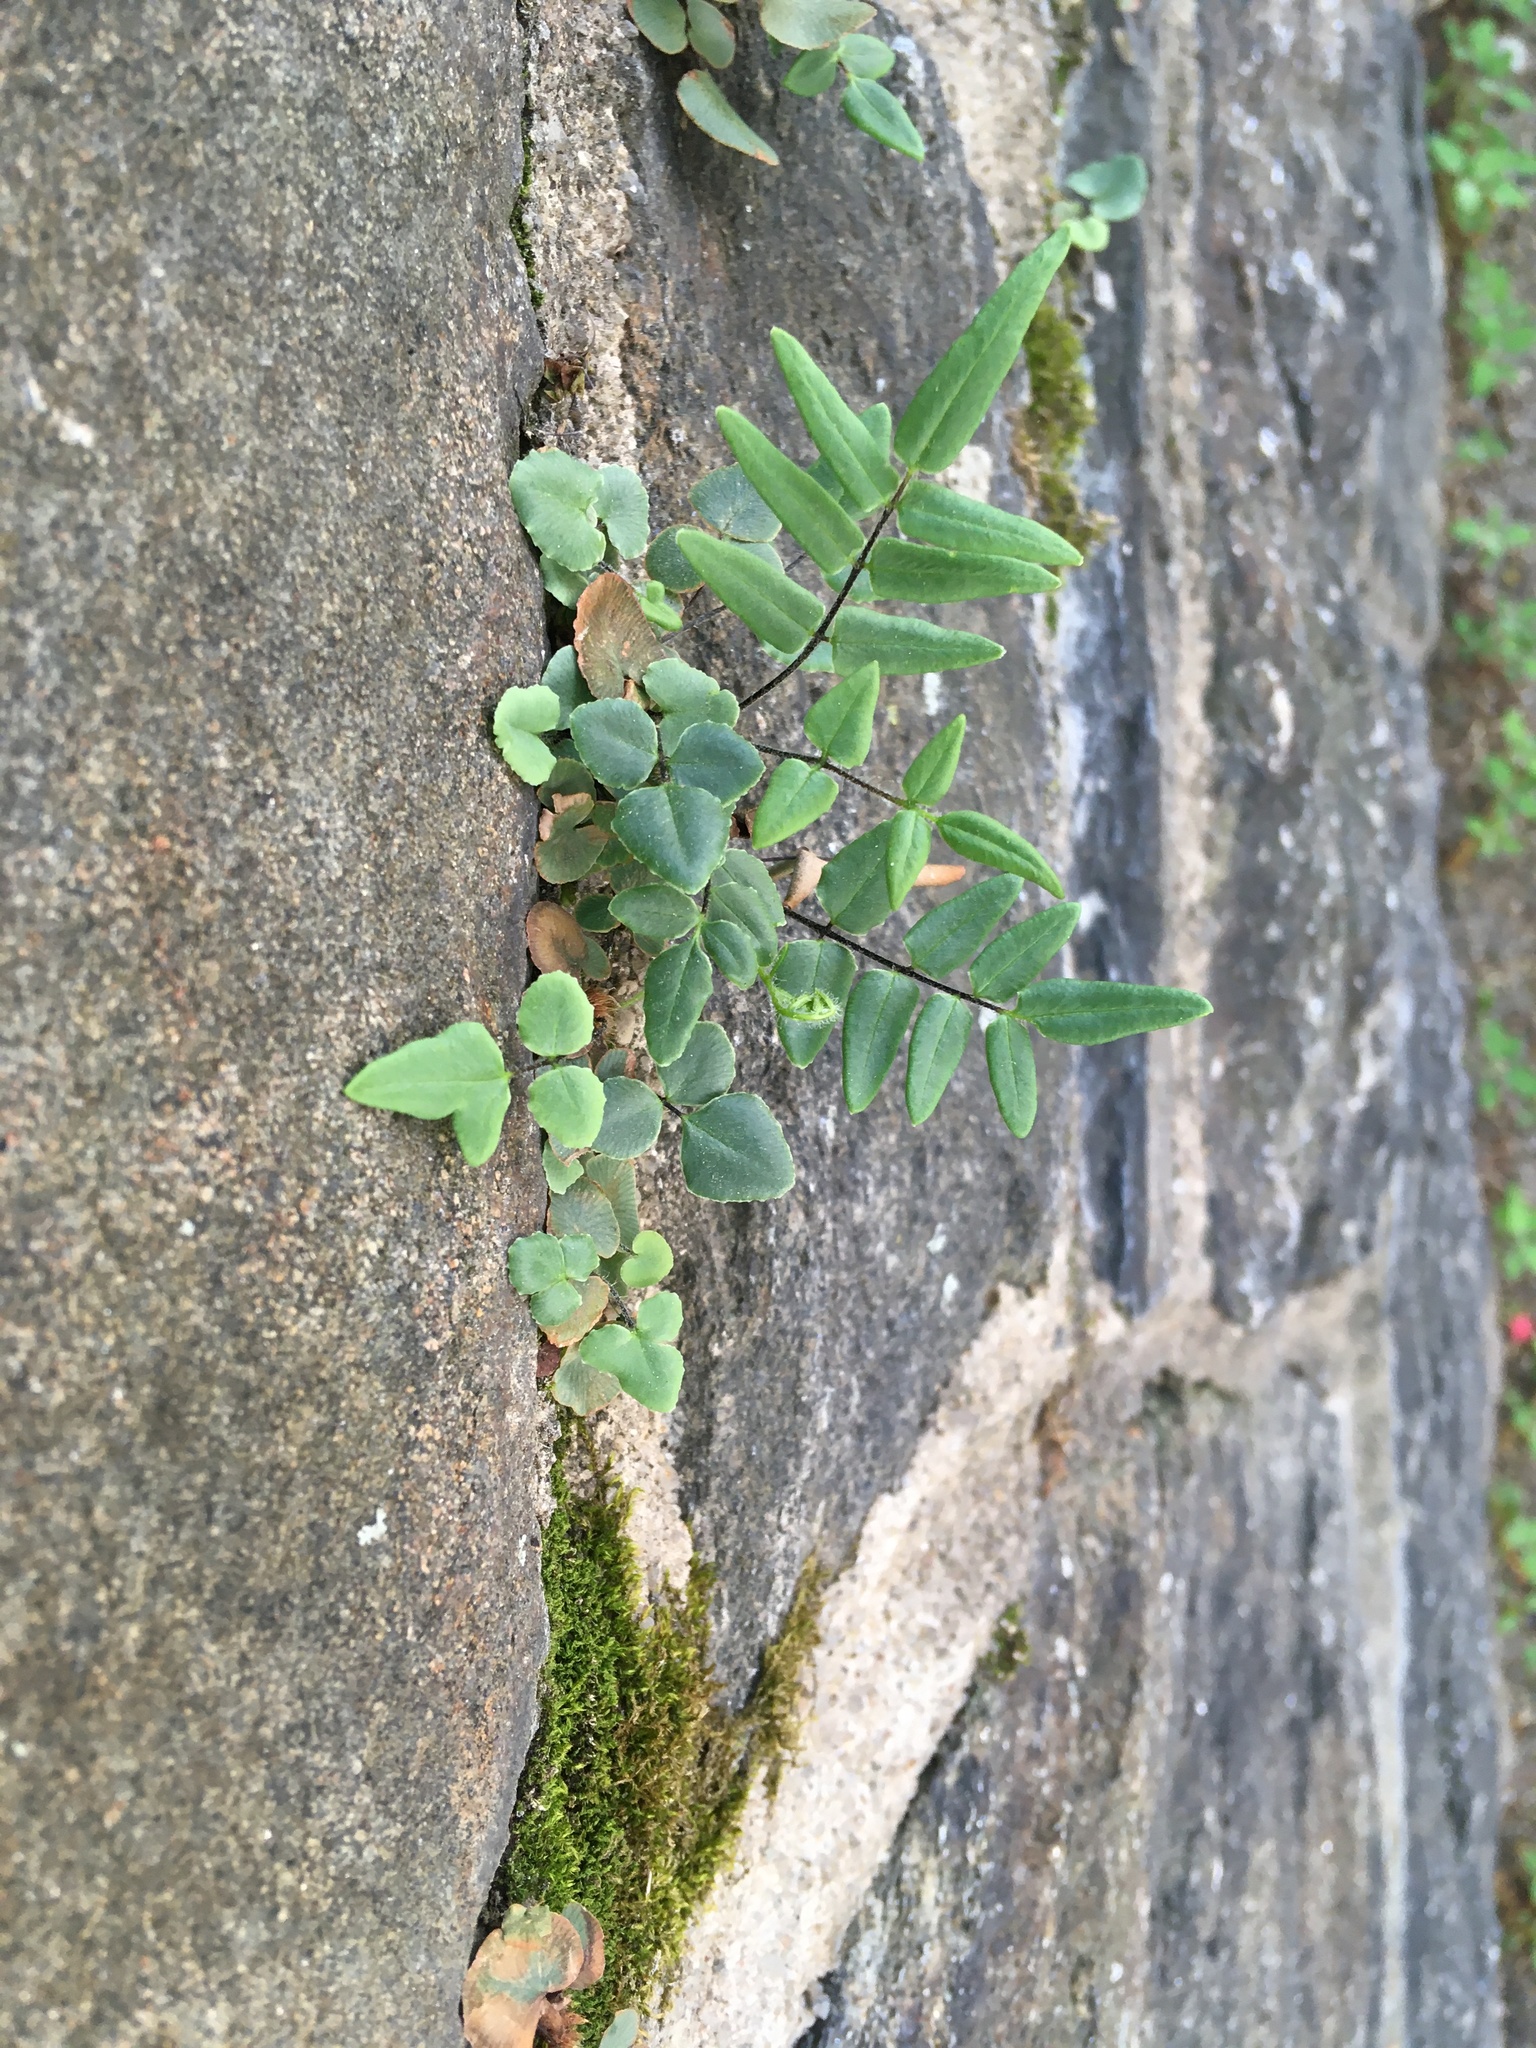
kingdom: Plantae
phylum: Tracheophyta
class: Polypodiopsida
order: Polypodiales
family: Pteridaceae
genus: Pellaea
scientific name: Pellaea atropurpurea
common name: Hairy cliffbrake
